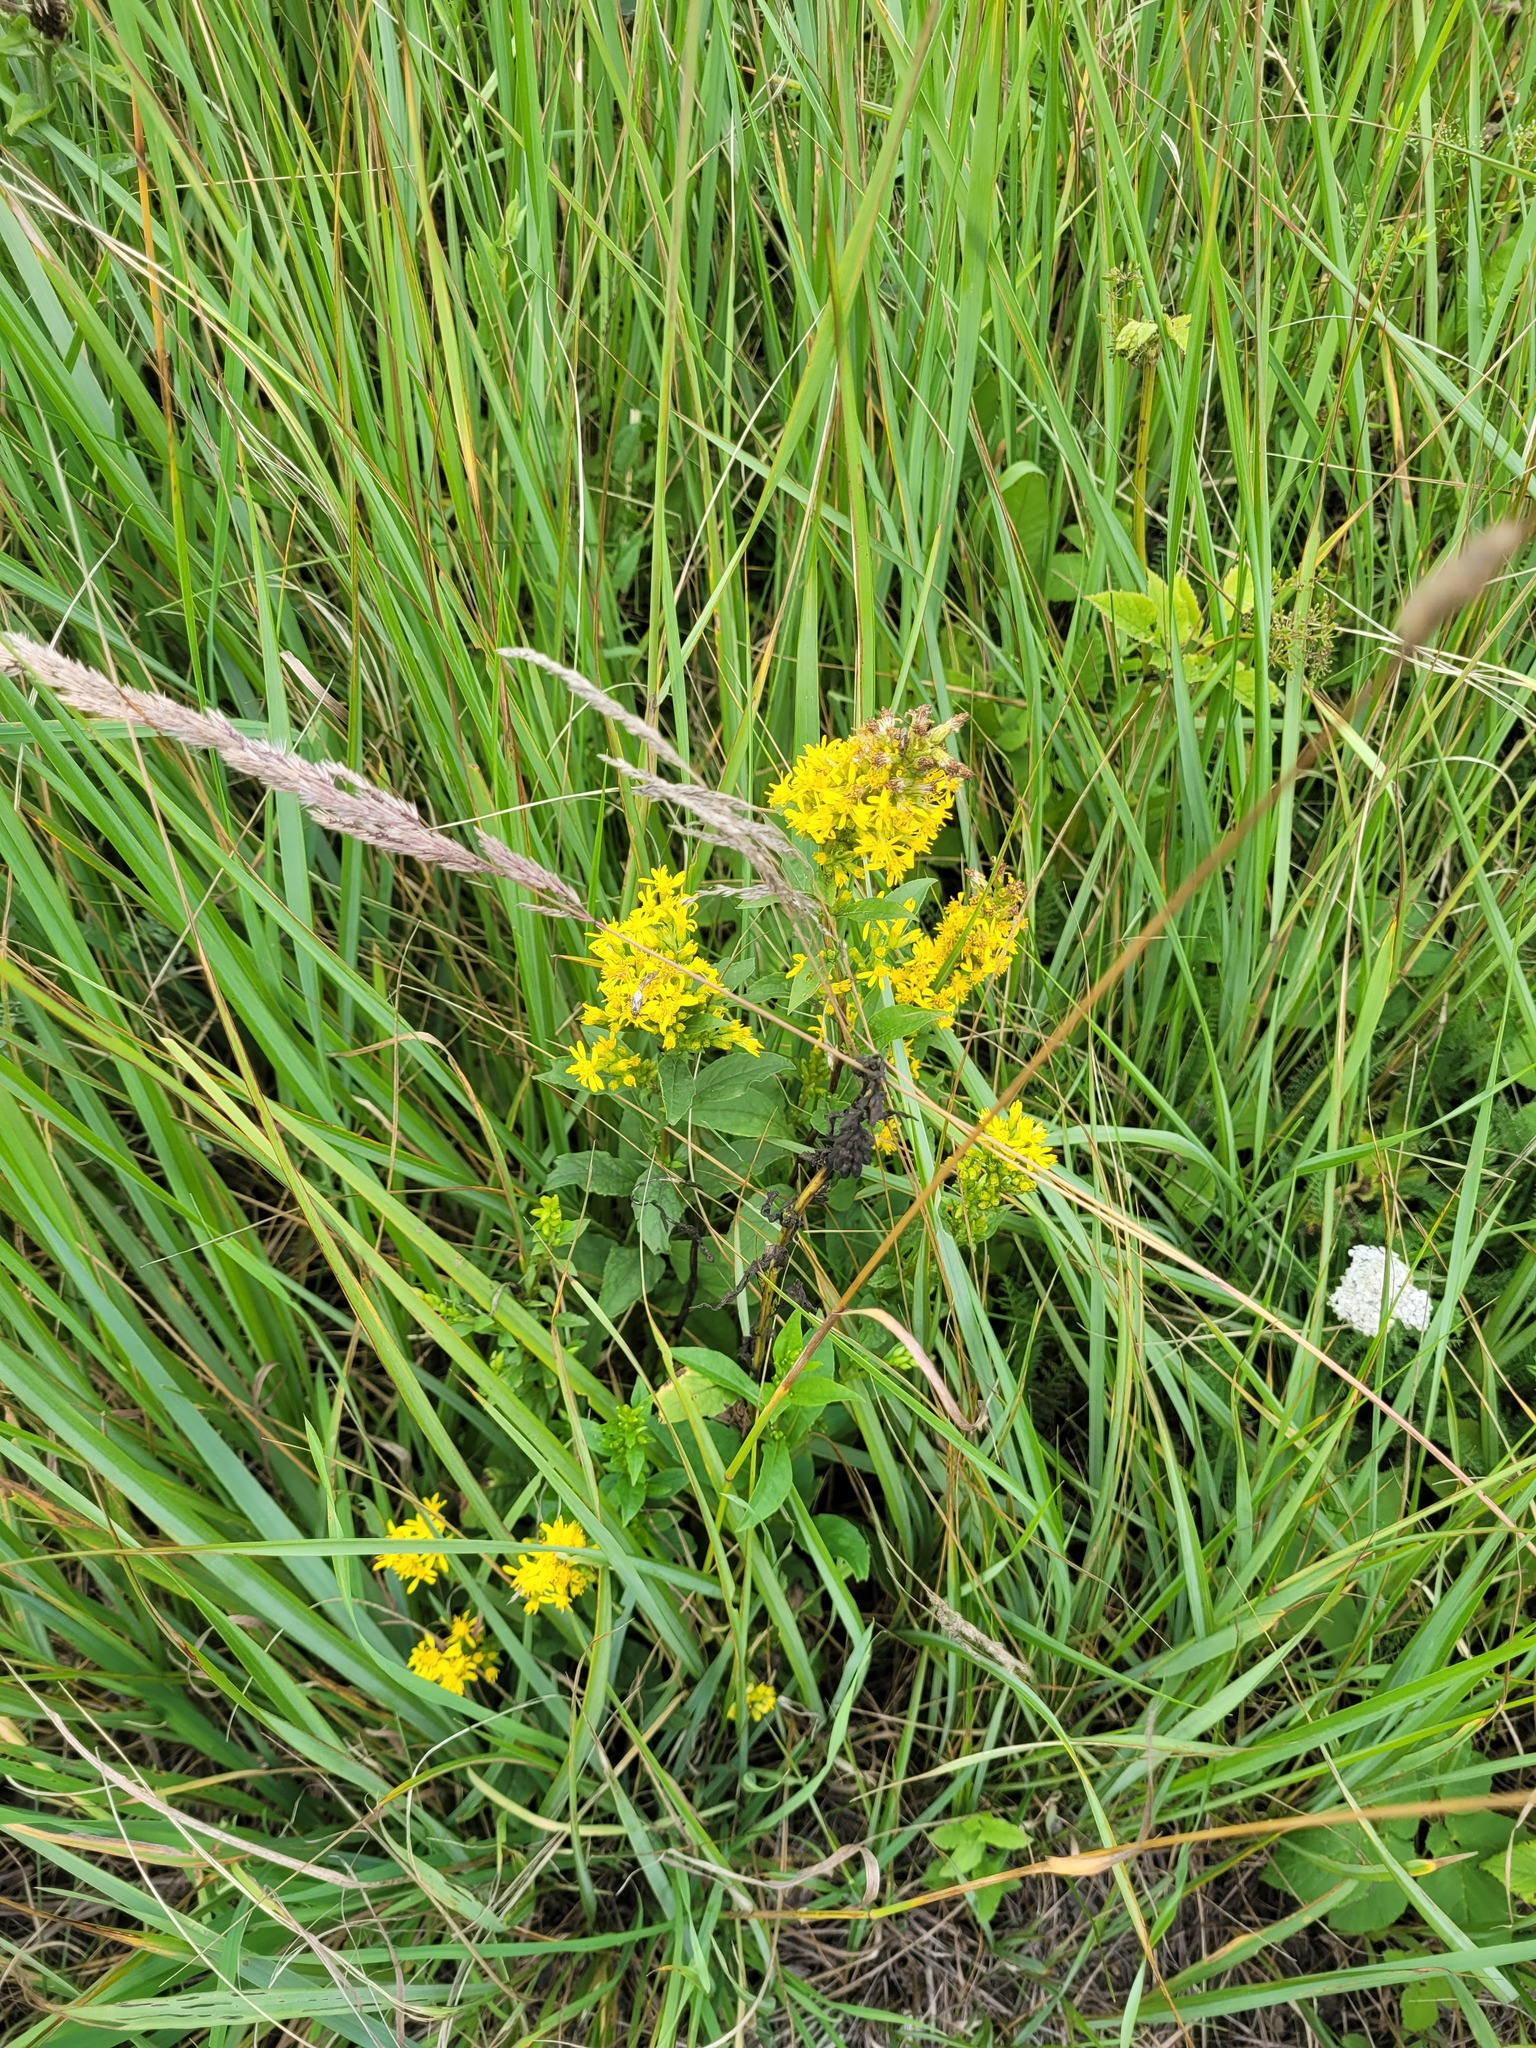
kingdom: Plantae
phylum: Tracheophyta
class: Magnoliopsida
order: Asterales
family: Asteraceae
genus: Solidago
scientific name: Solidago virgaurea
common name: Goldenrod
